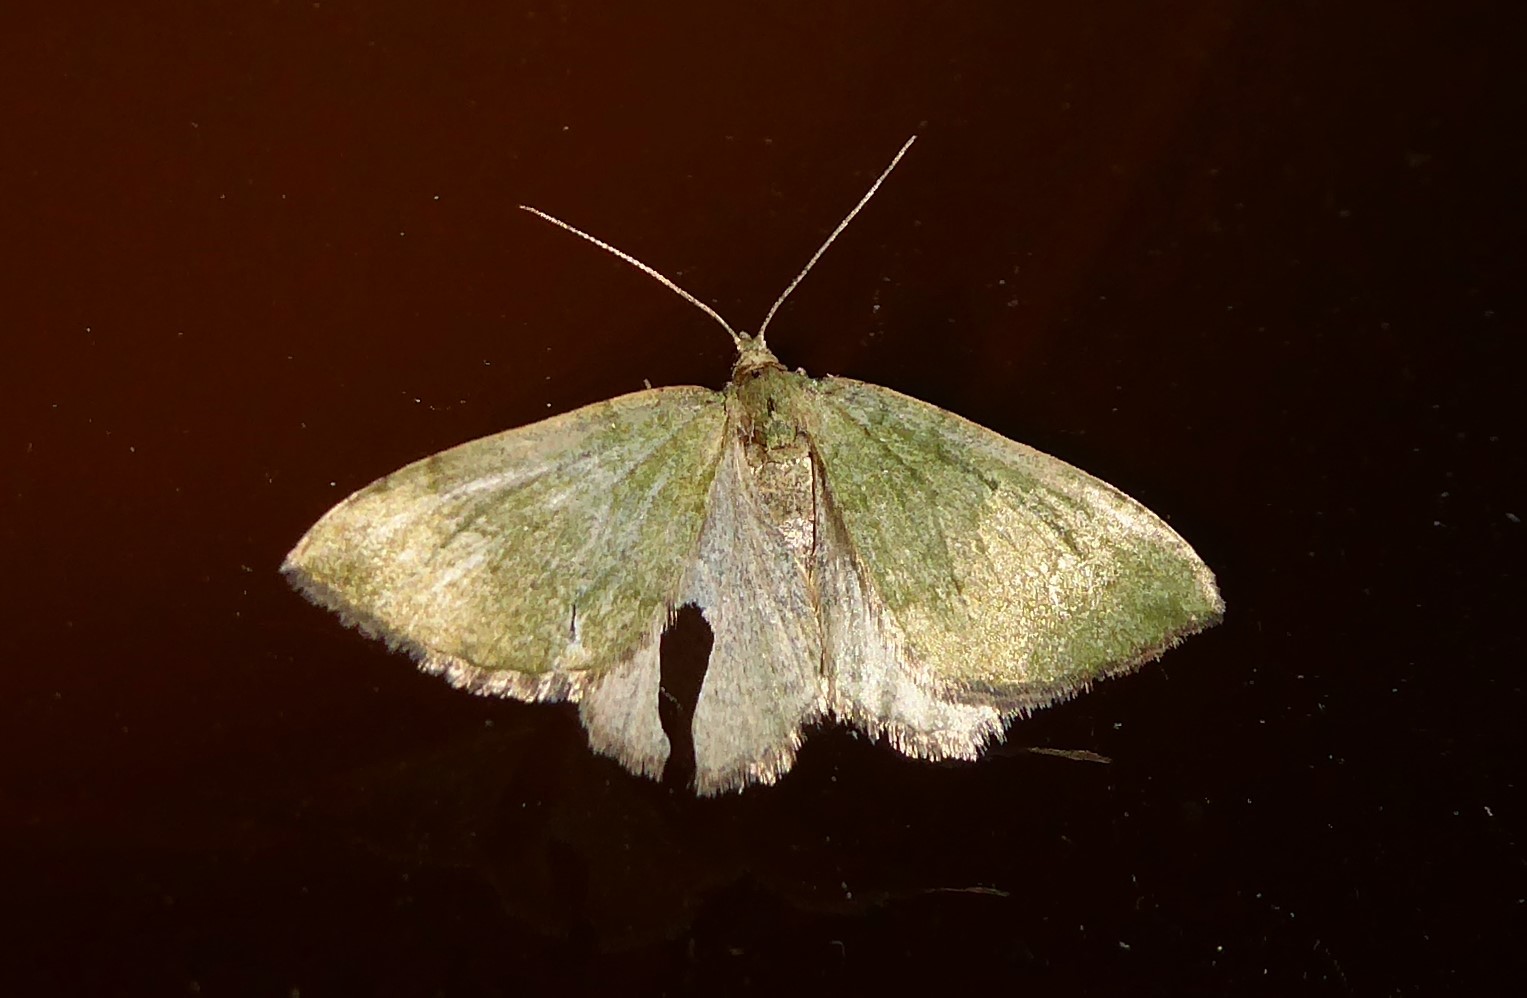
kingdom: Animalia
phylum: Arthropoda
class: Insecta
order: Lepidoptera
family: Geometridae
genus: Epyaxa
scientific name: Epyaxa rosearia
